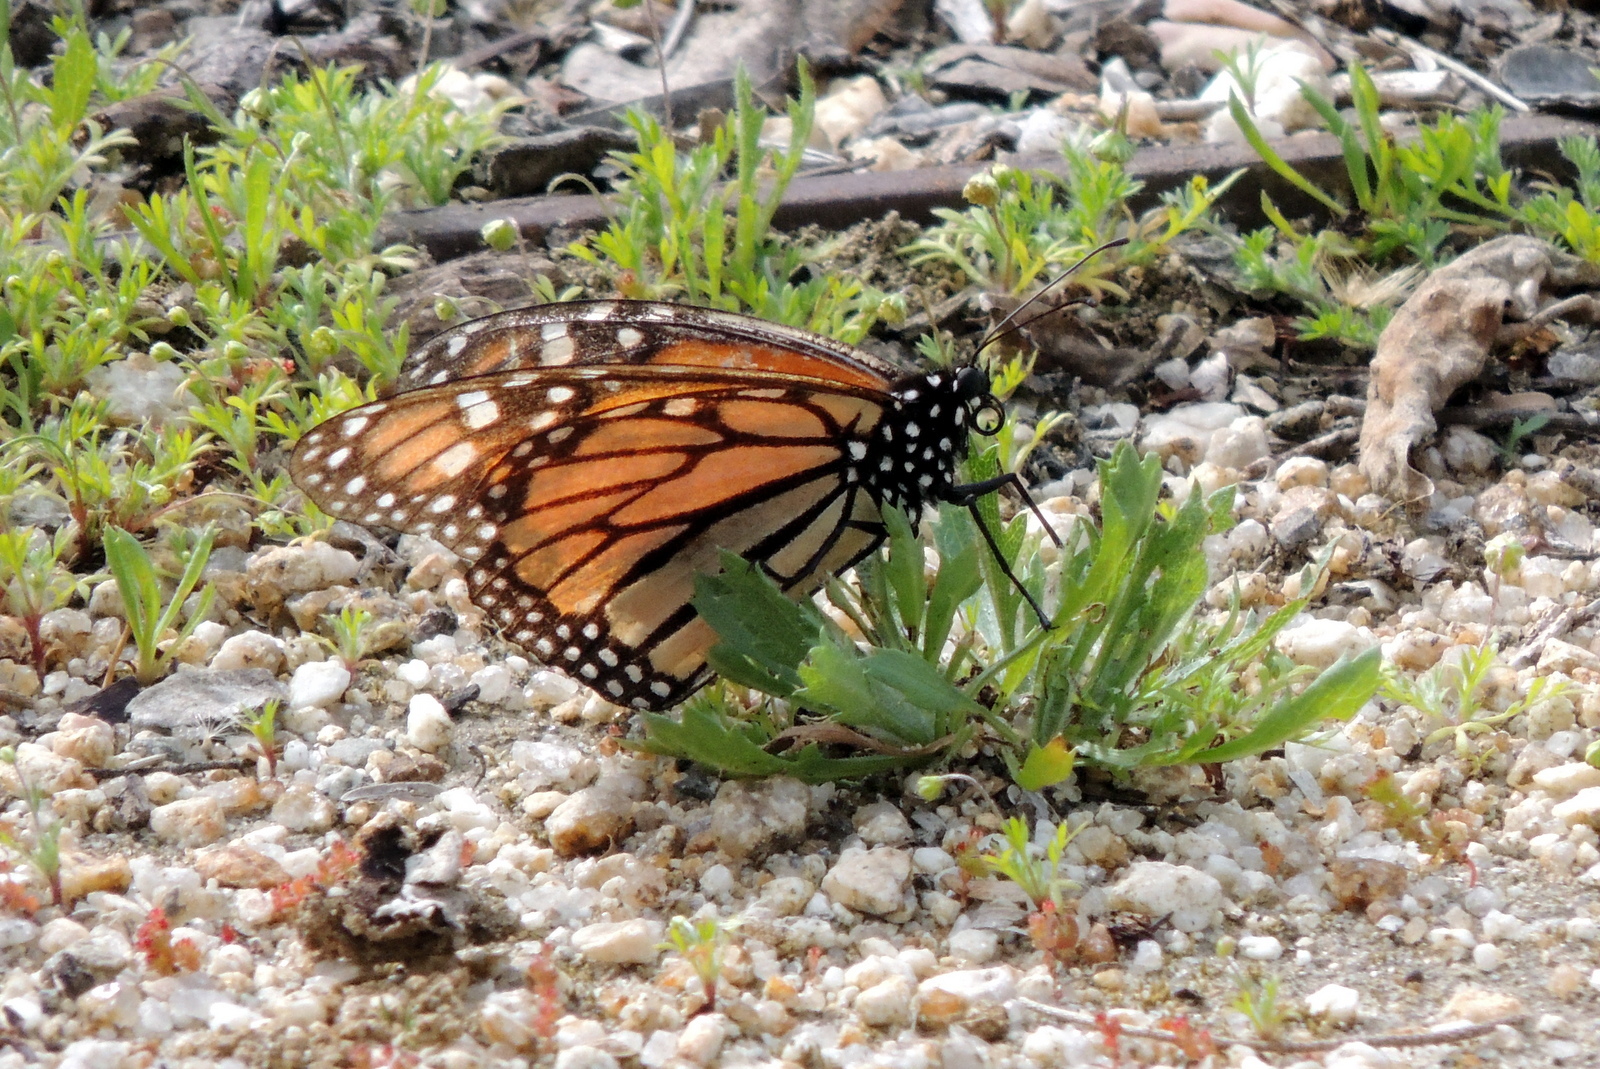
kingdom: Animalia
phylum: Arthropoda
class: Insecta
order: Lepidoptera
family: Nymphalidae
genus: Danaus
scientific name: Danaus plexippus
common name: Monarch
